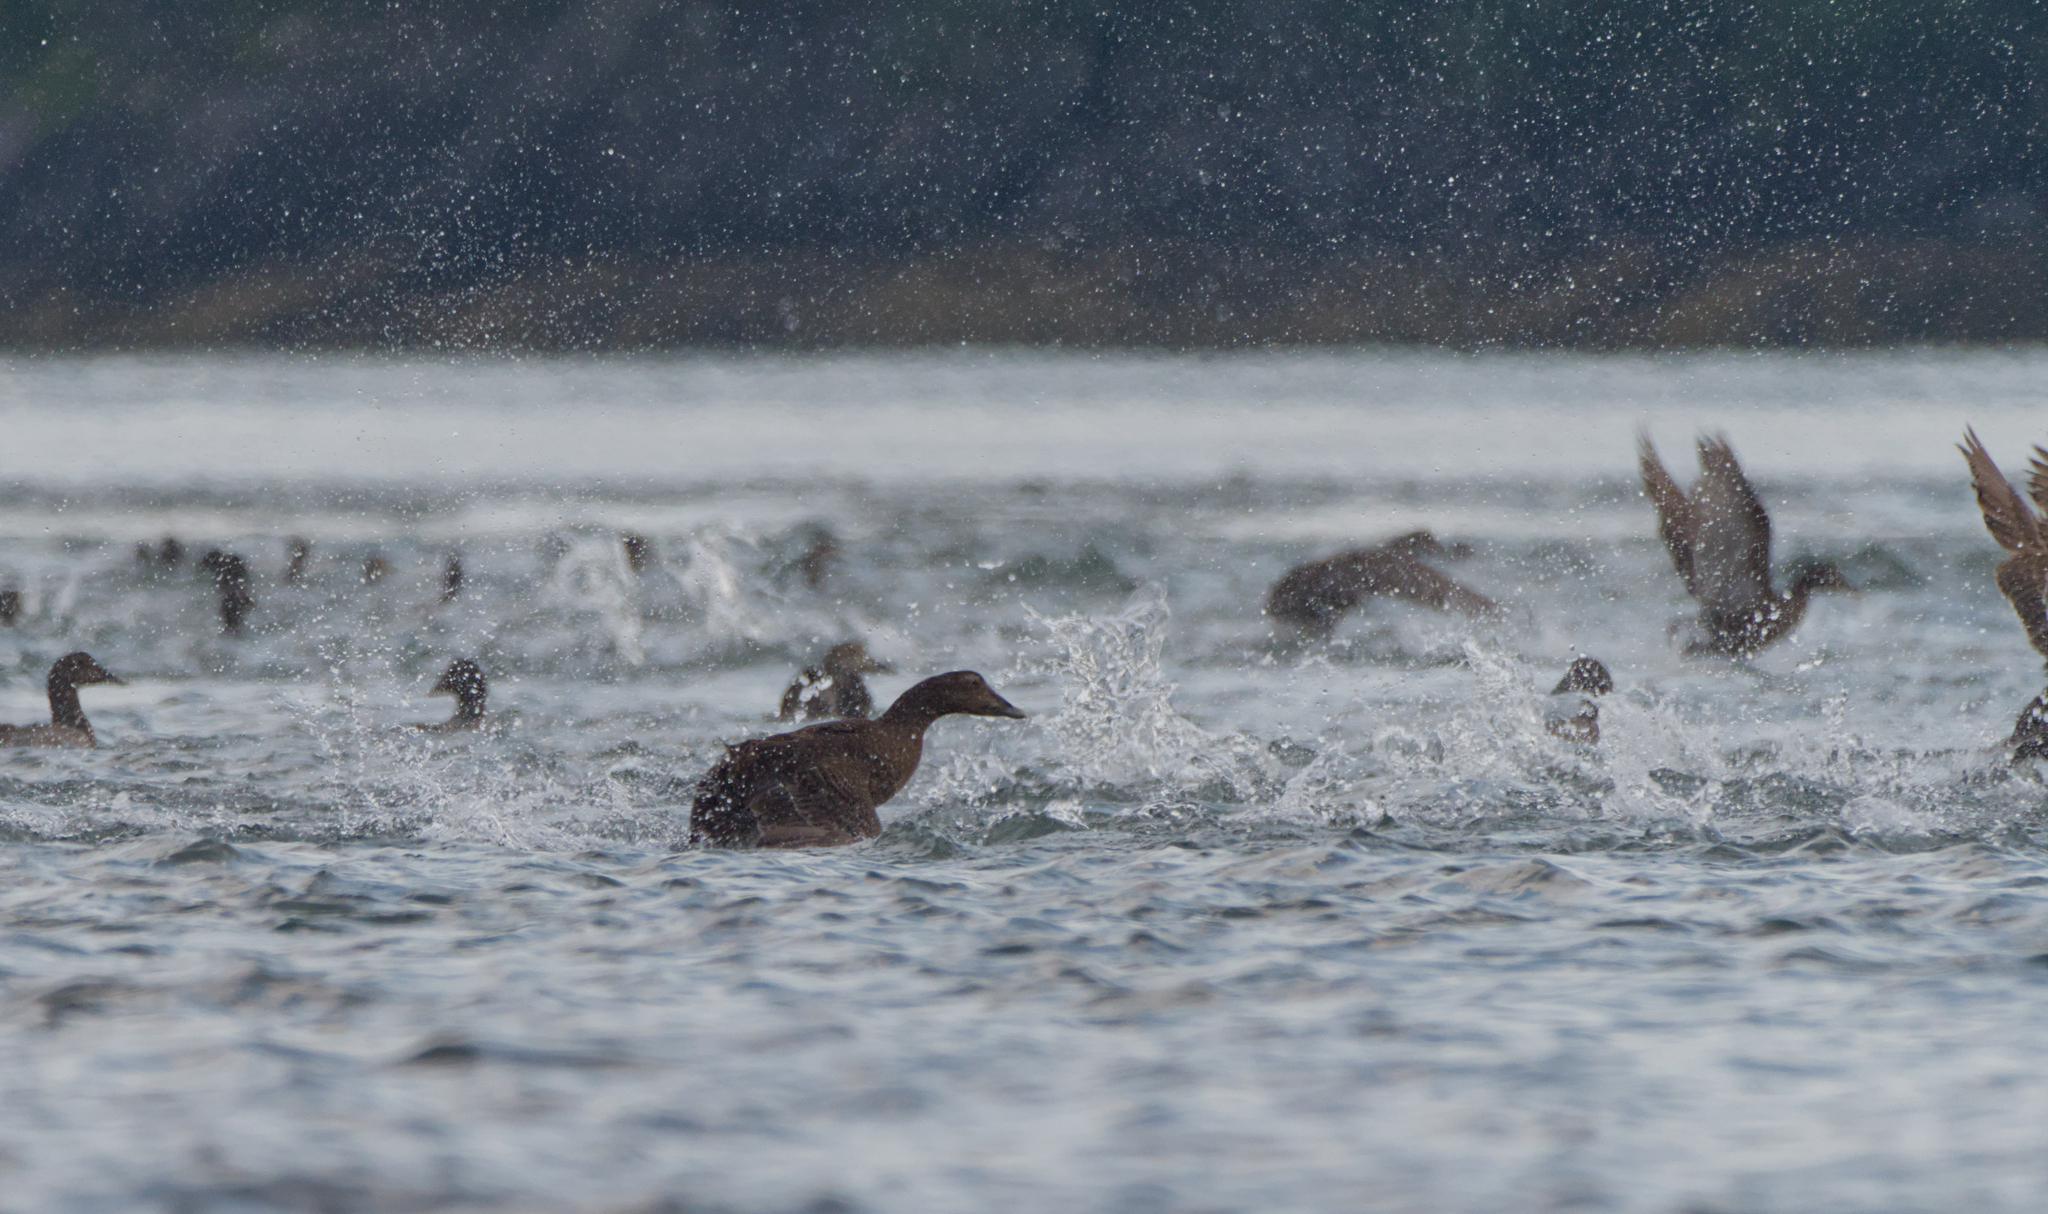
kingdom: Animalia
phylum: Chordata
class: Aves
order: Anseriformes
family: Anatidae
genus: Somateria
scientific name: Somateria mollissima
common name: Common eider
